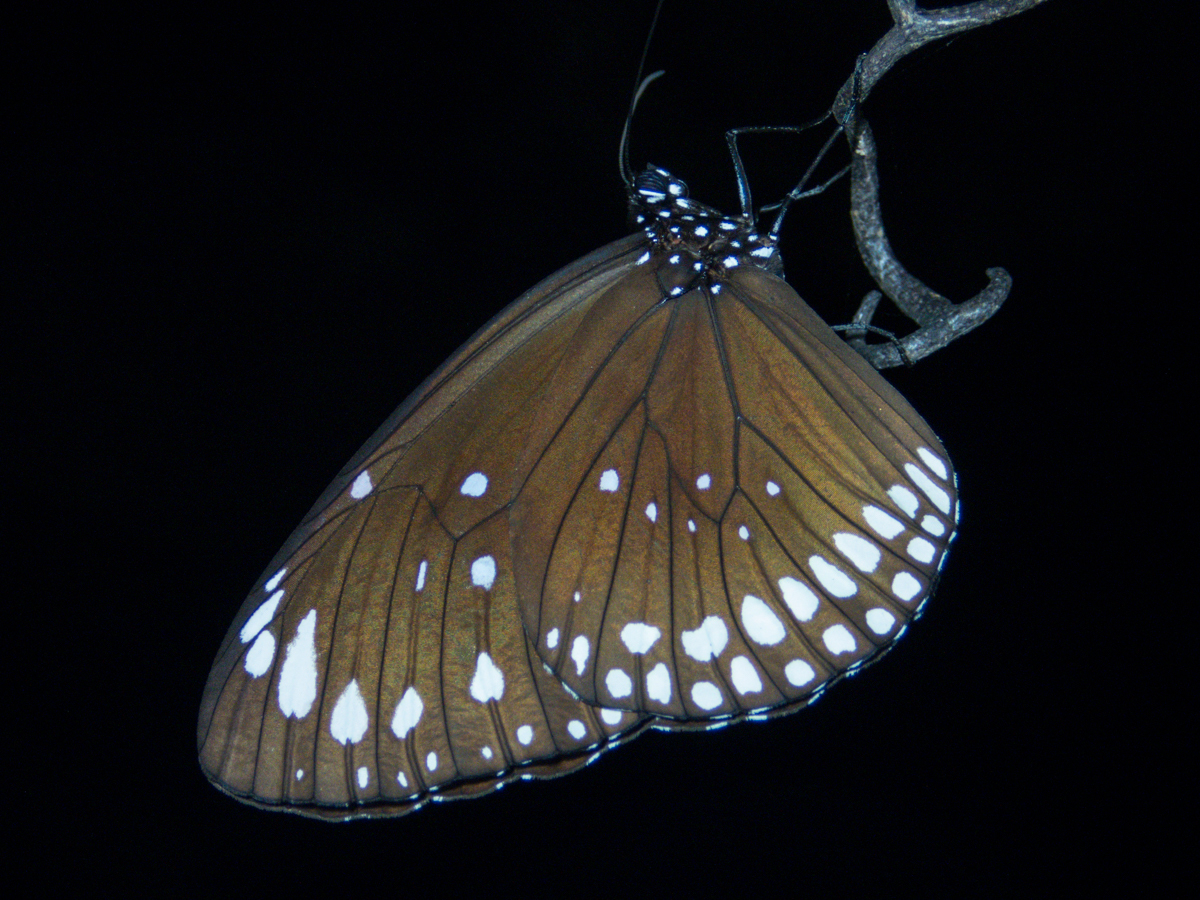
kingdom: Animalia
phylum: Arthropoda
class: Insecta
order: Lepidoptera
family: Nymphalidae
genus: Euploea
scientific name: Euploea crameri
